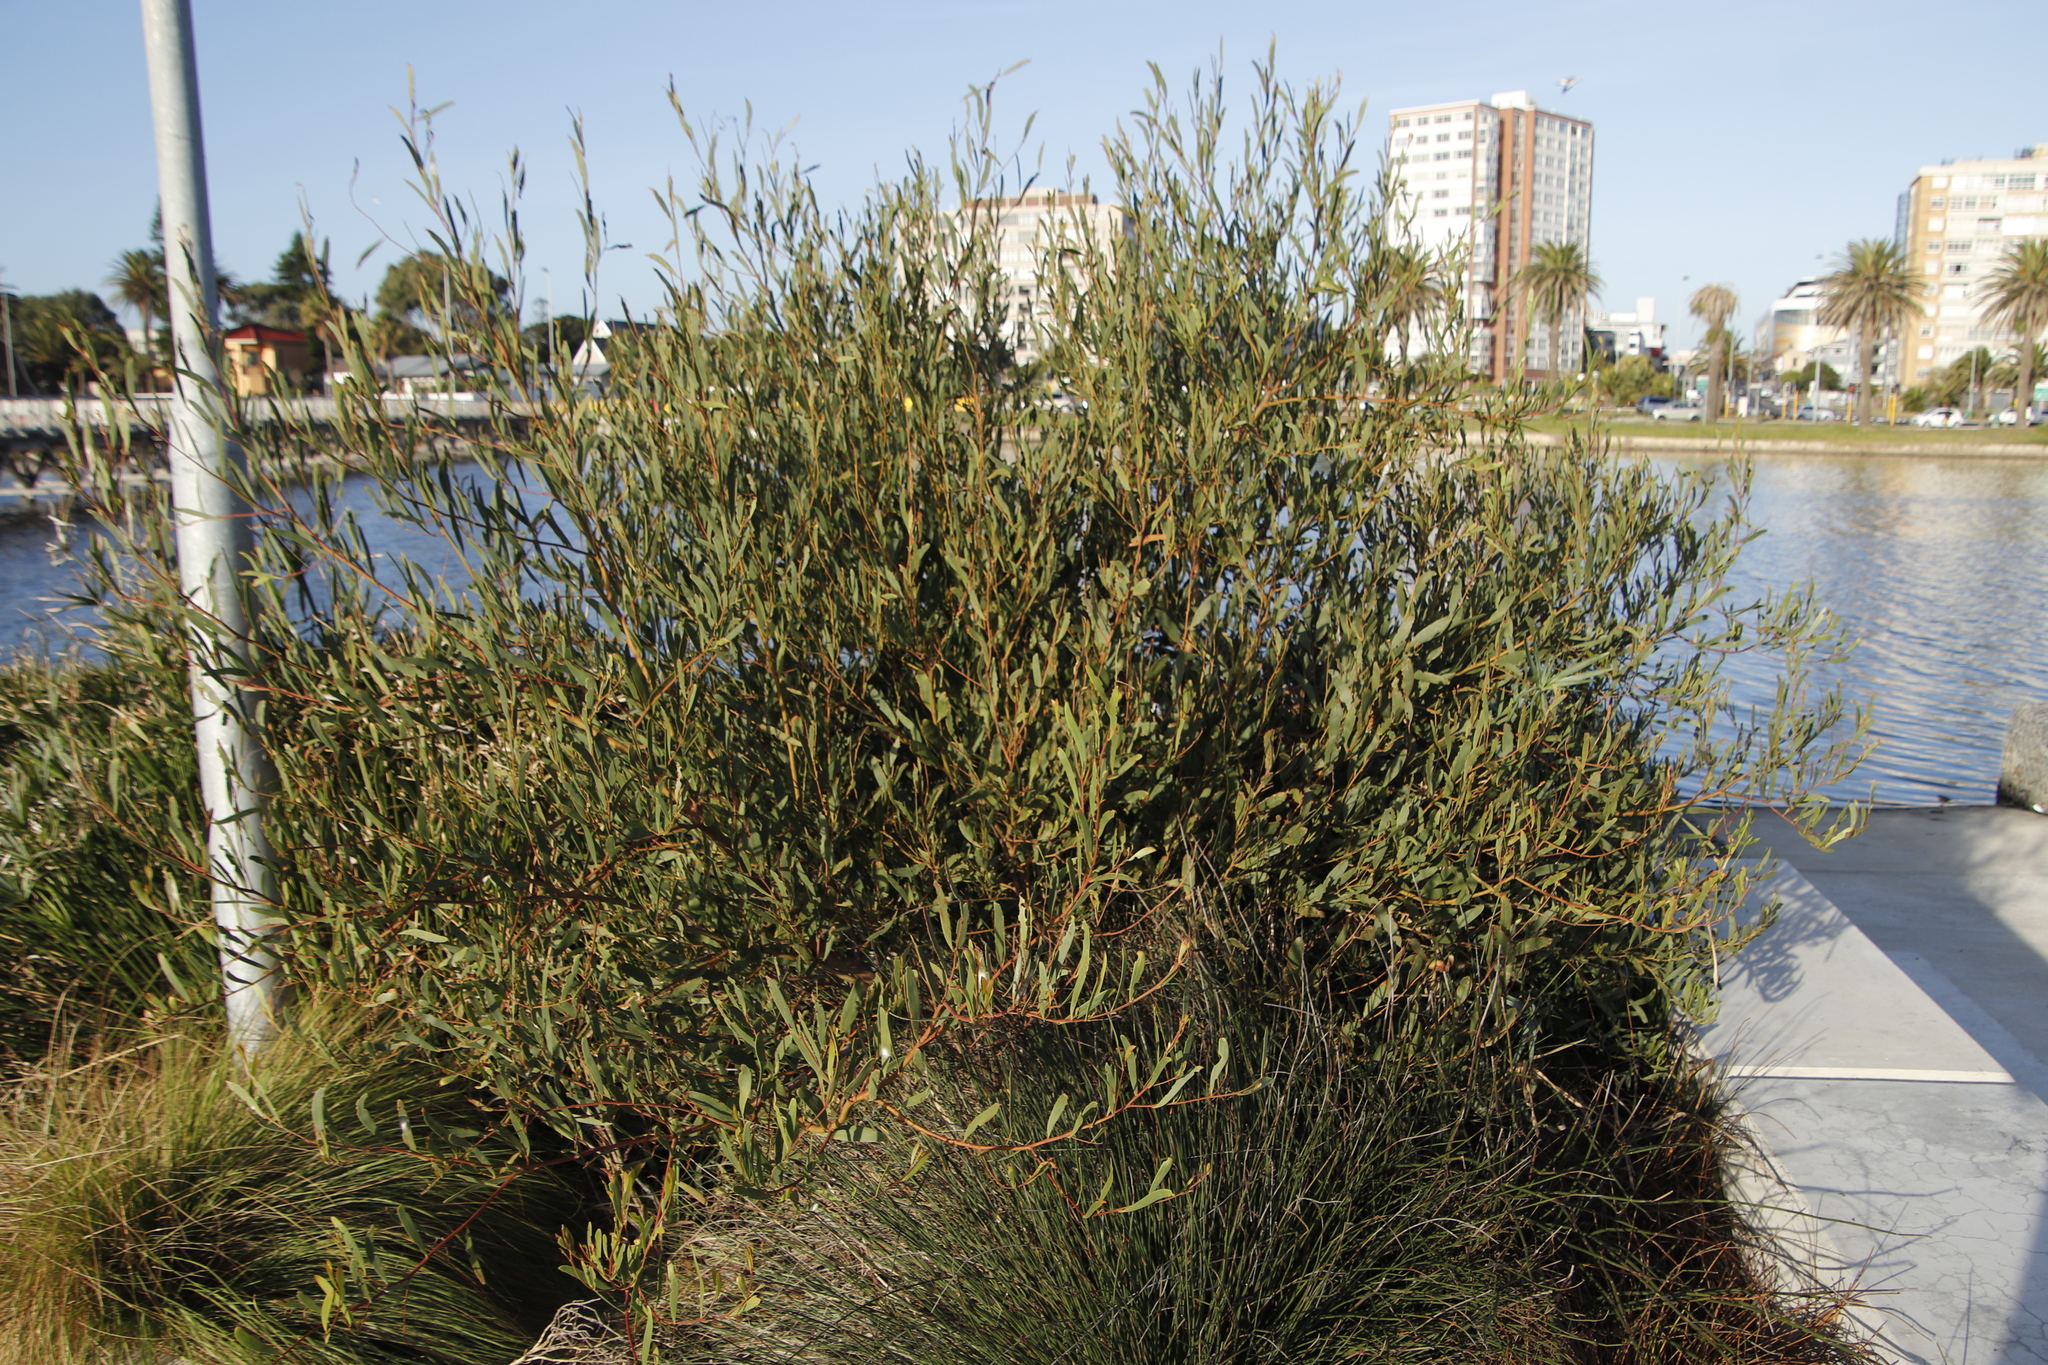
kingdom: Plantae
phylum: Tracheophyta
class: Magnoliopsida
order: Fabales
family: Fabaceae
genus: Acacia
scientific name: Acacia cyclops
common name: Coastal wattle
